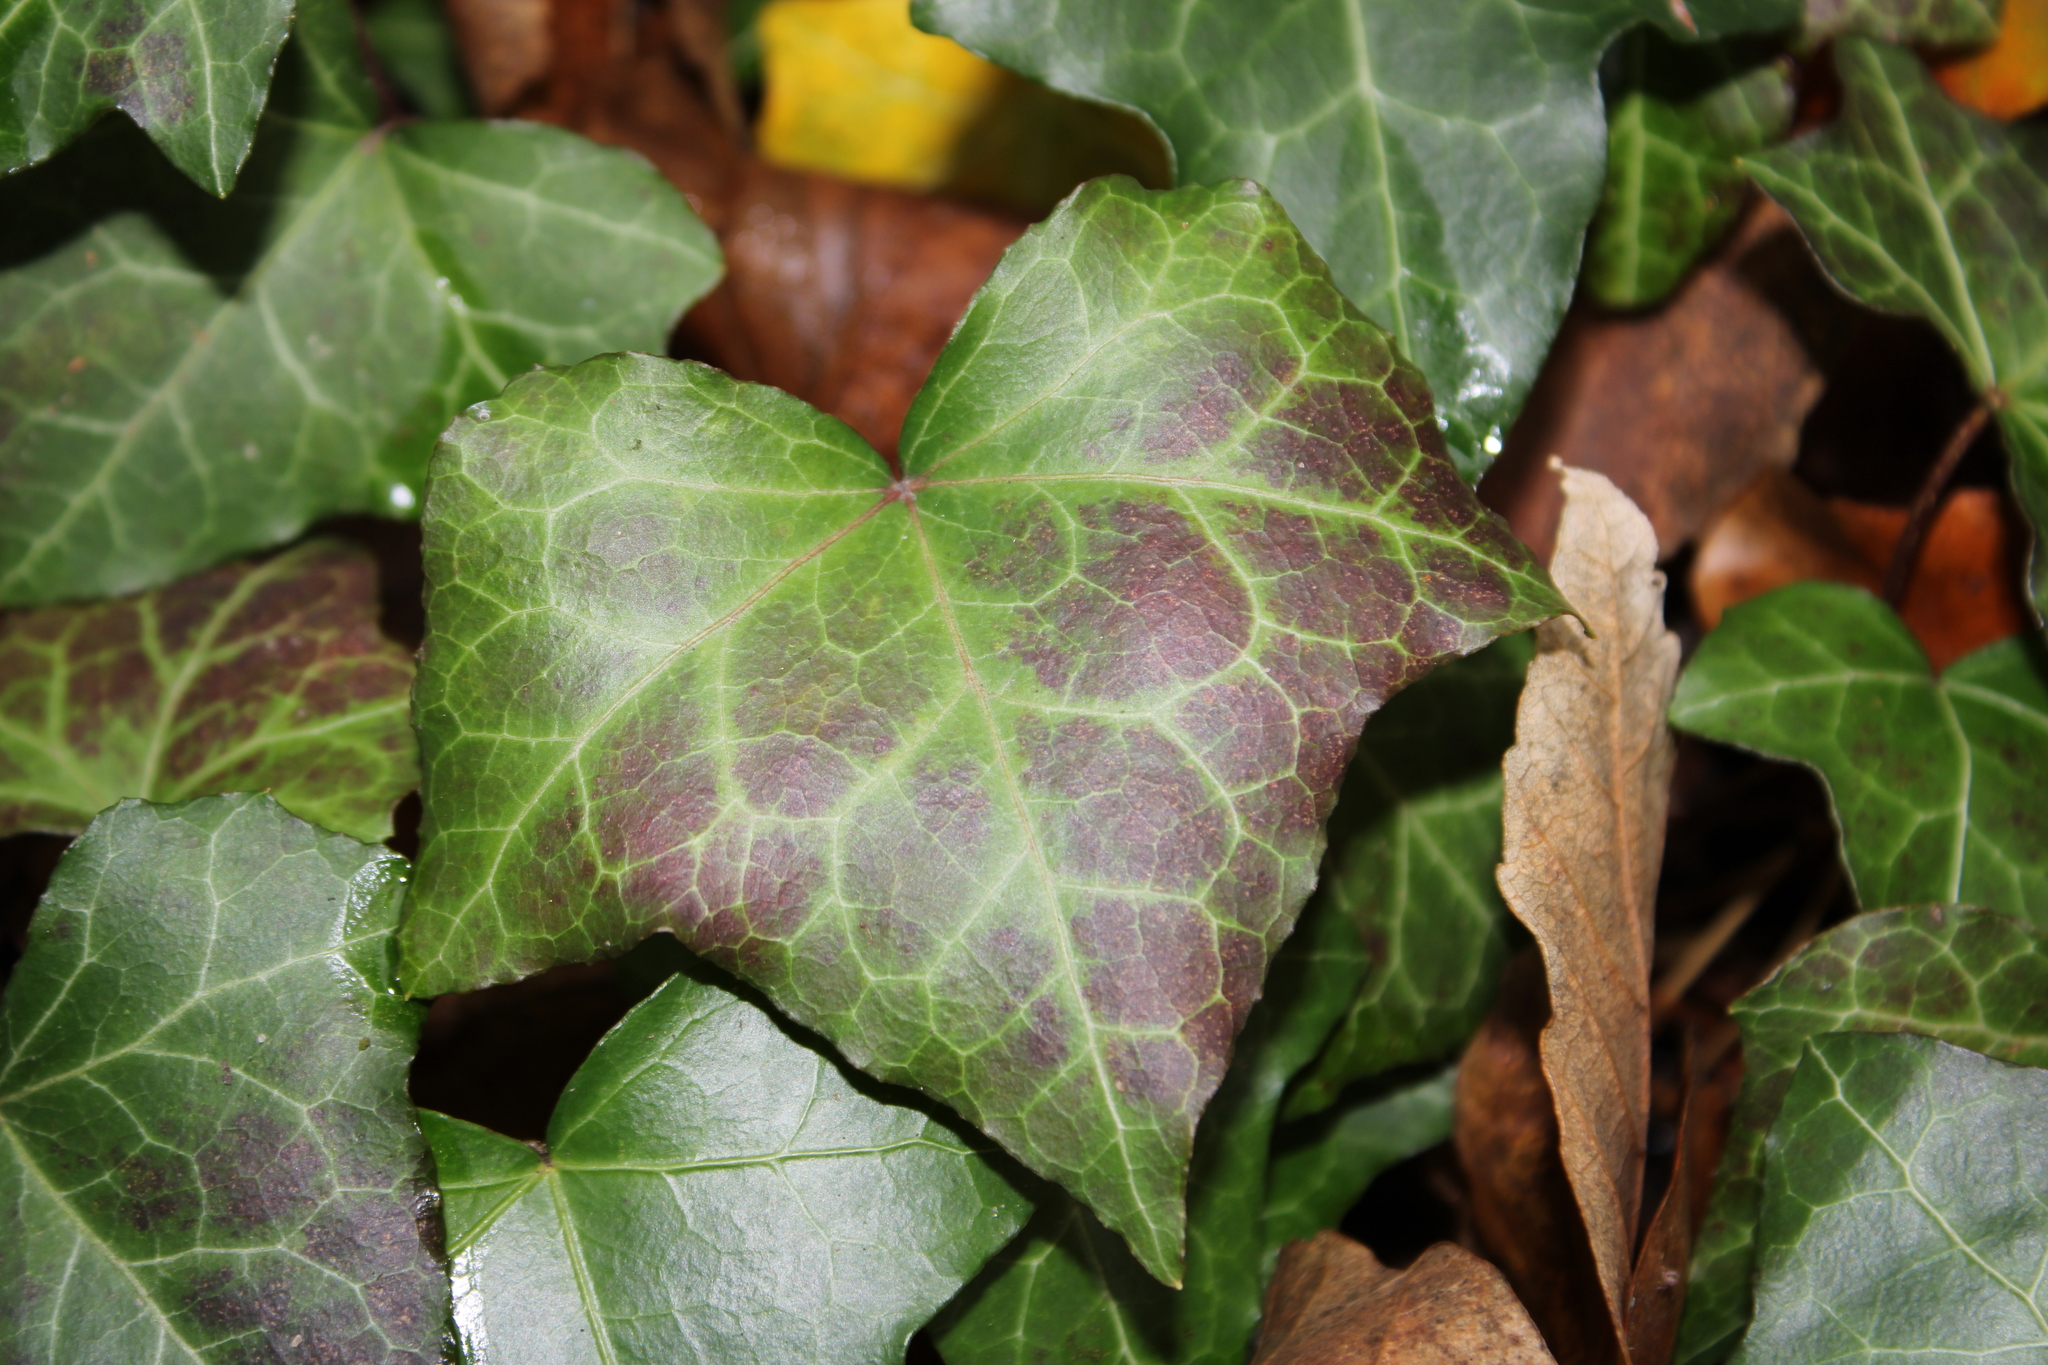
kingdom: Plantae
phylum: Tracheophyta
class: Magnoliopsida
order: Apiales
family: Araliaceae
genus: Hedera
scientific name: Hedera helix
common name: Ivy
